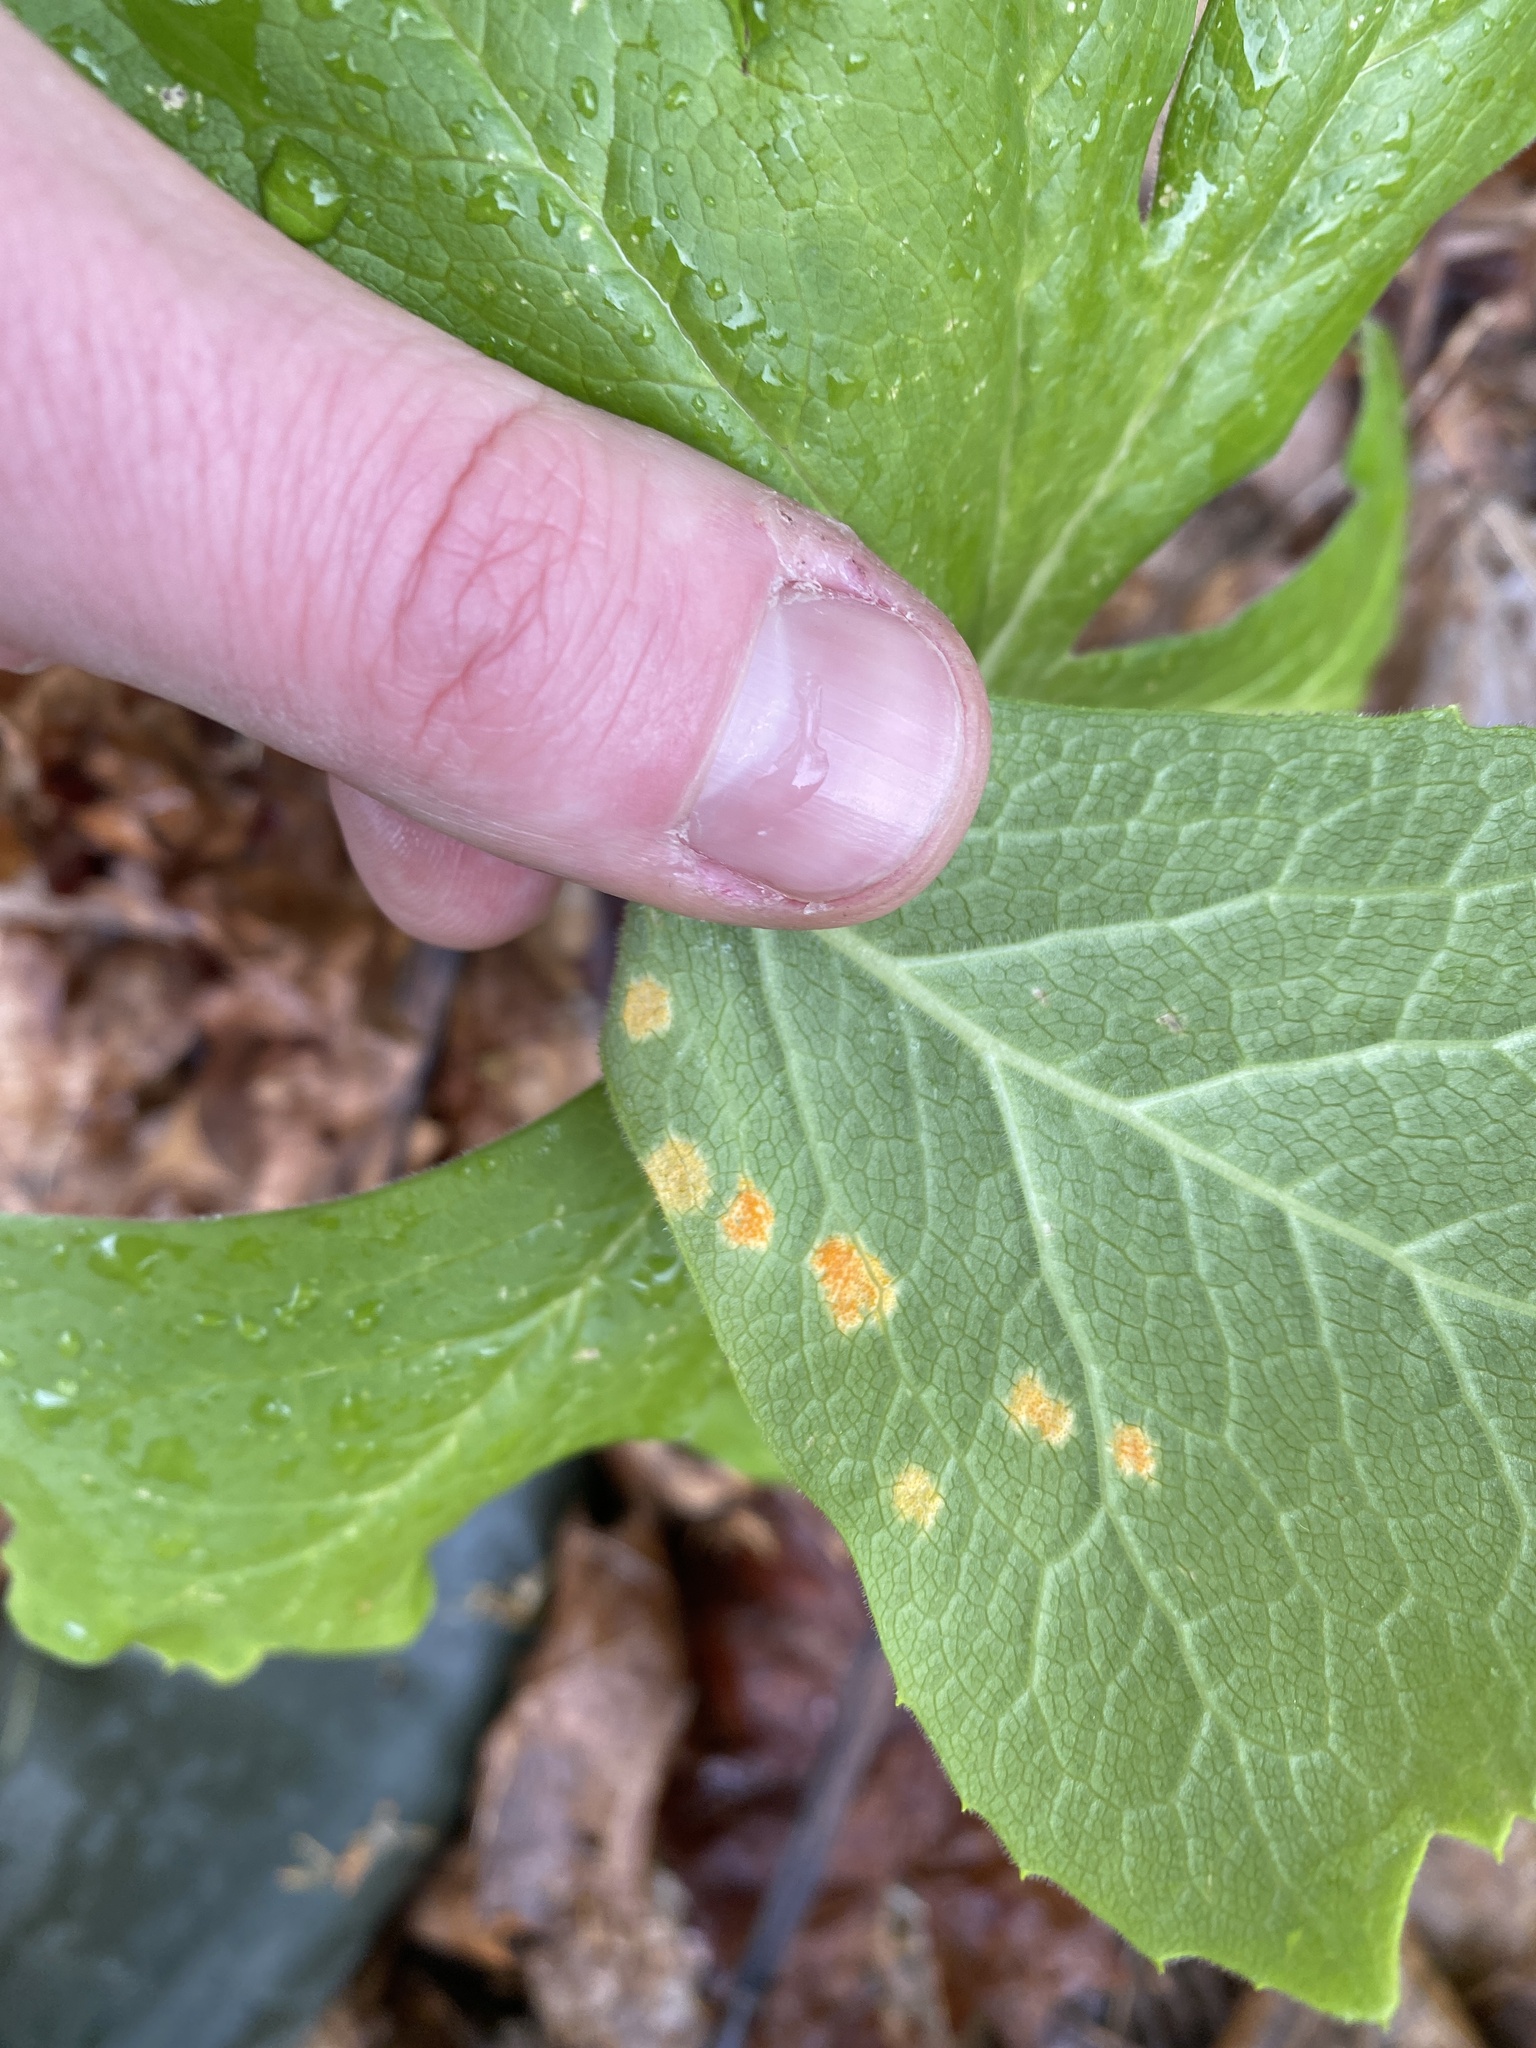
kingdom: Fungi
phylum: Basidiomycota
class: Pucciniomycetes
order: Pucciniales
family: Pucciniaceae
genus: Puccinia
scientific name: Puccinia podophylli
